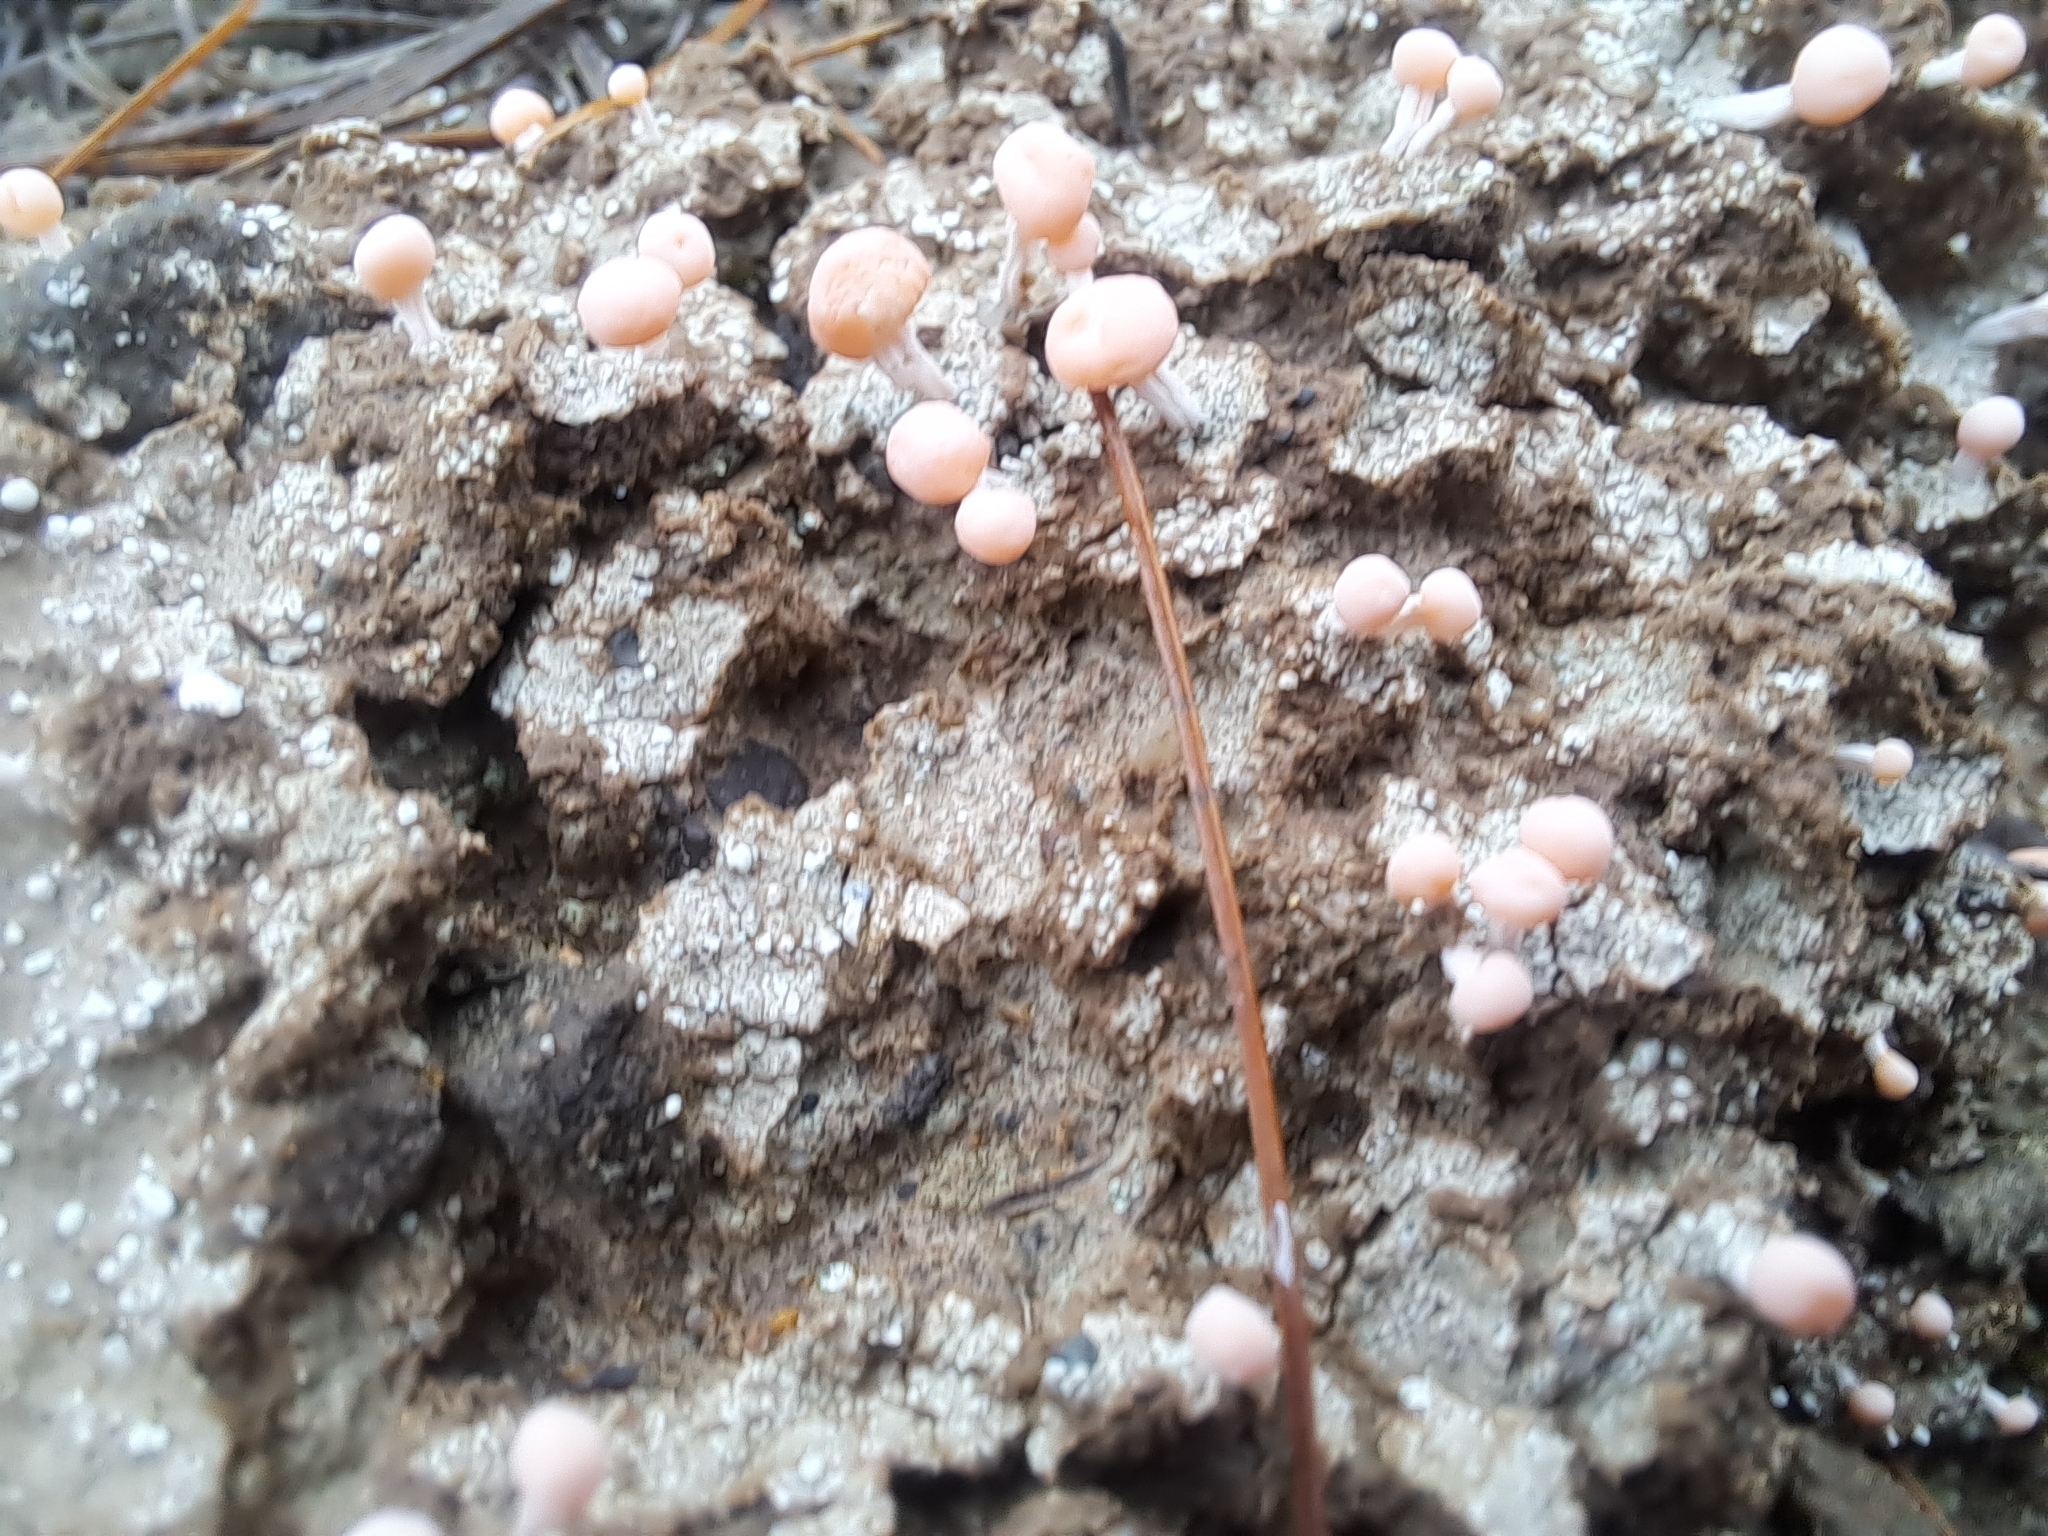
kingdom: Fungi
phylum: Ascomycota
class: Lecanoromycetes
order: Pertusariales
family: Icmadophilaceae
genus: Dibaeis
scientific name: Dibaeis baeomyces
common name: Pink earth lichen
